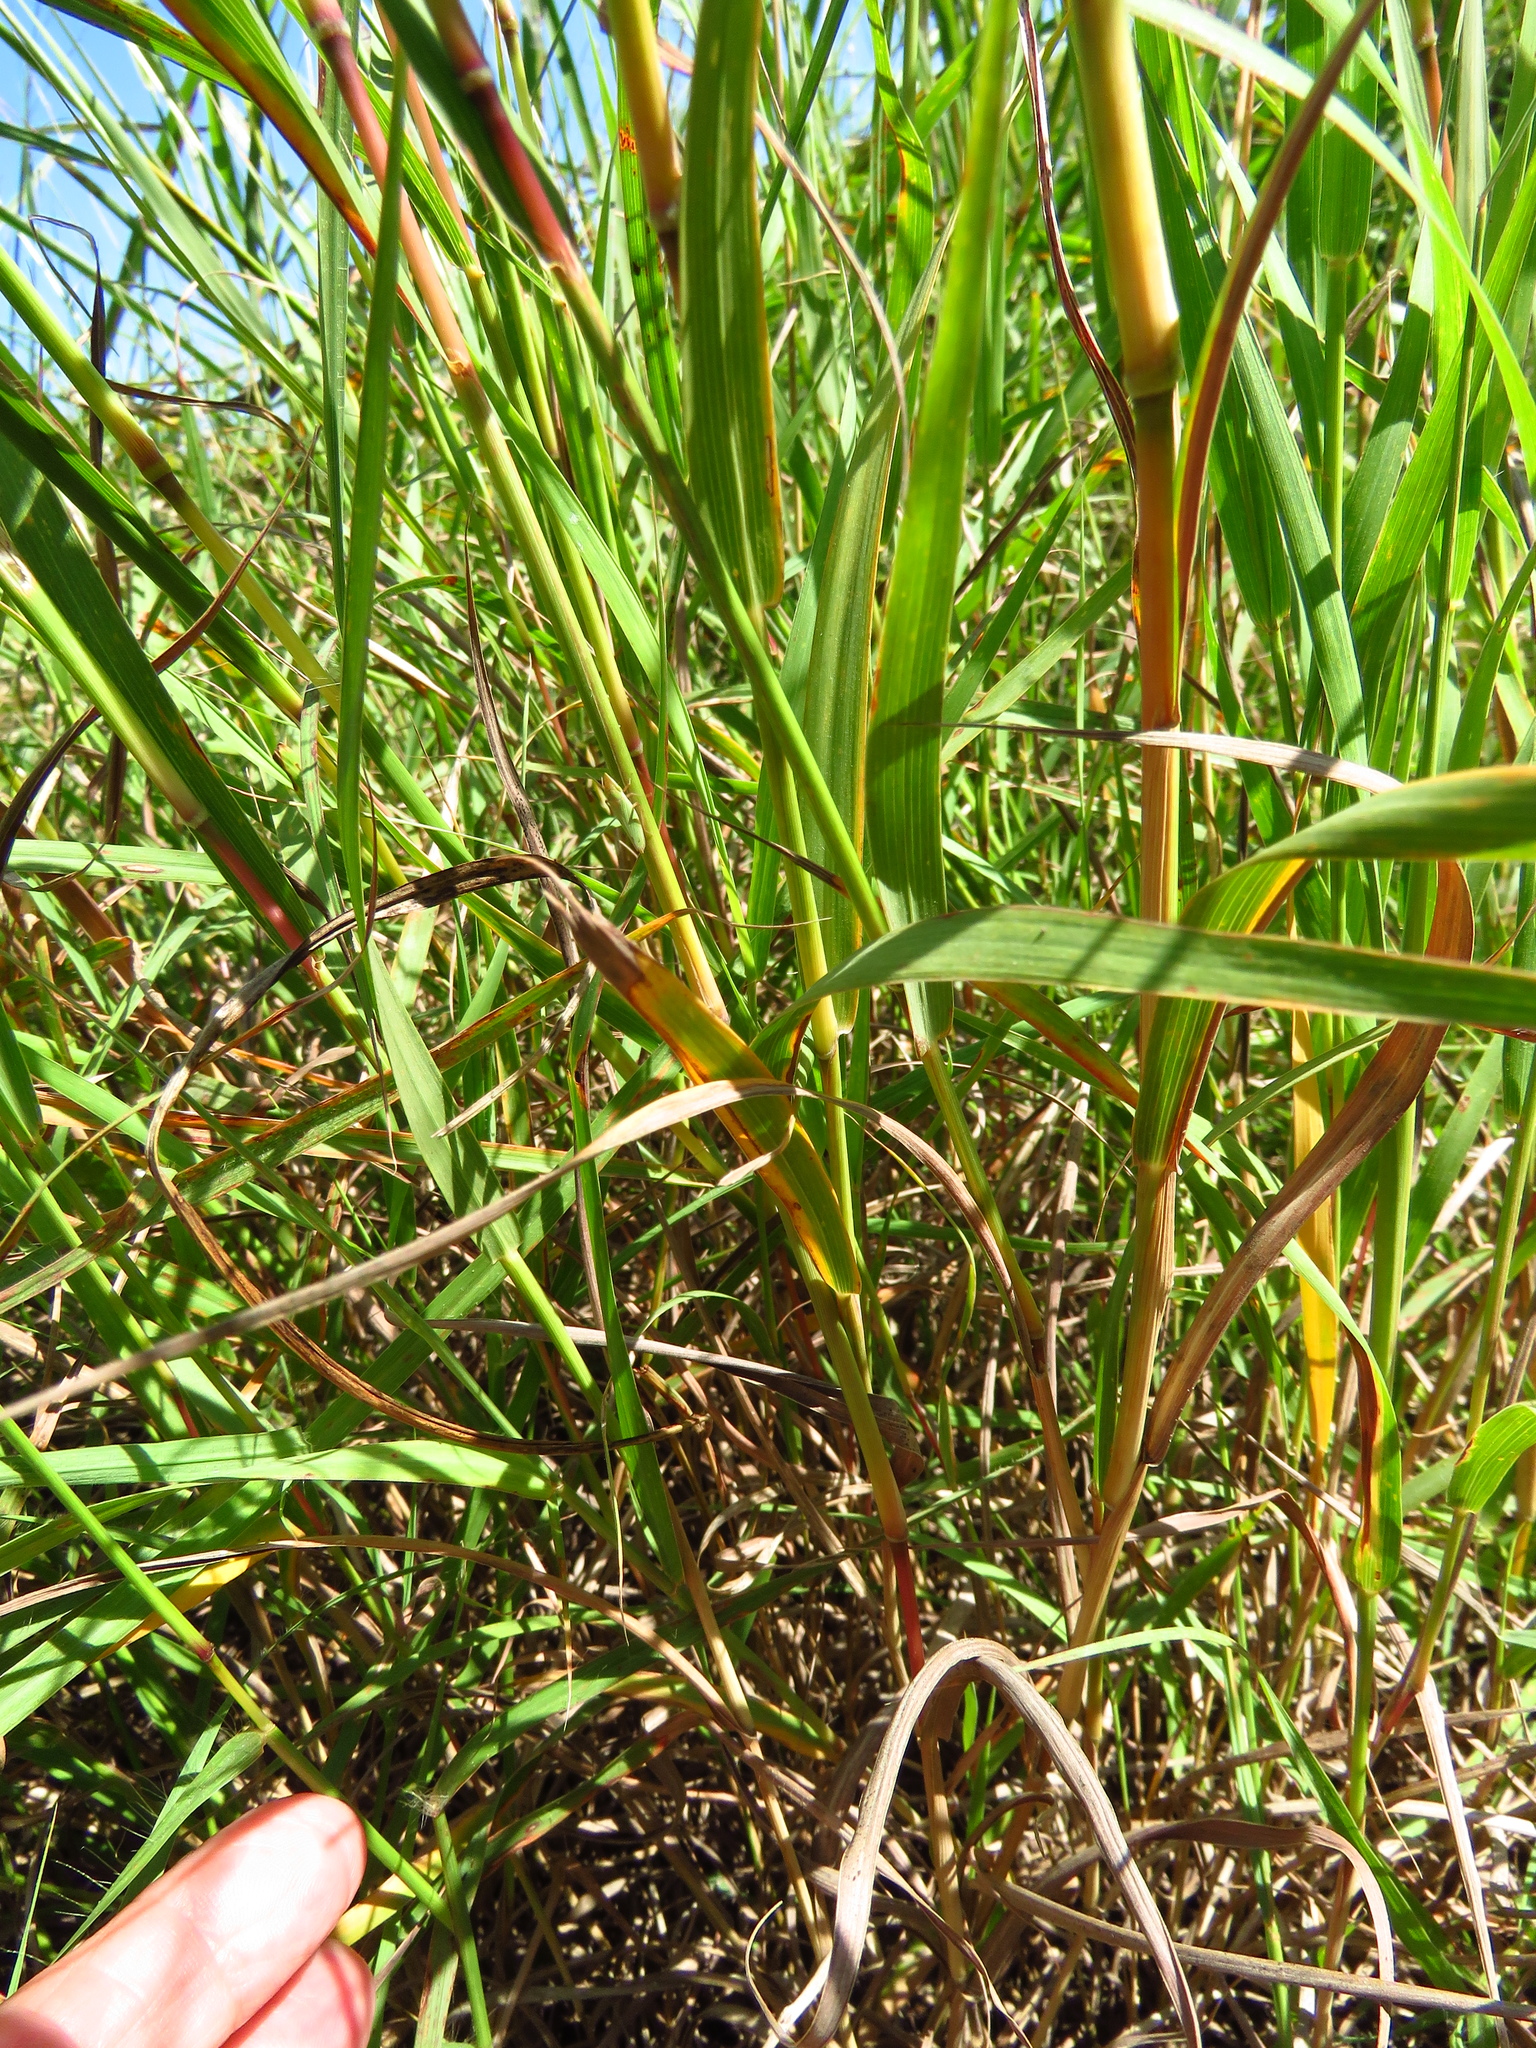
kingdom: Plantae
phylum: Tracheophyta
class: Liliopsida
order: Poales
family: Poaceae
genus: Bothriochloa
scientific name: Bothriochloa torreyana
